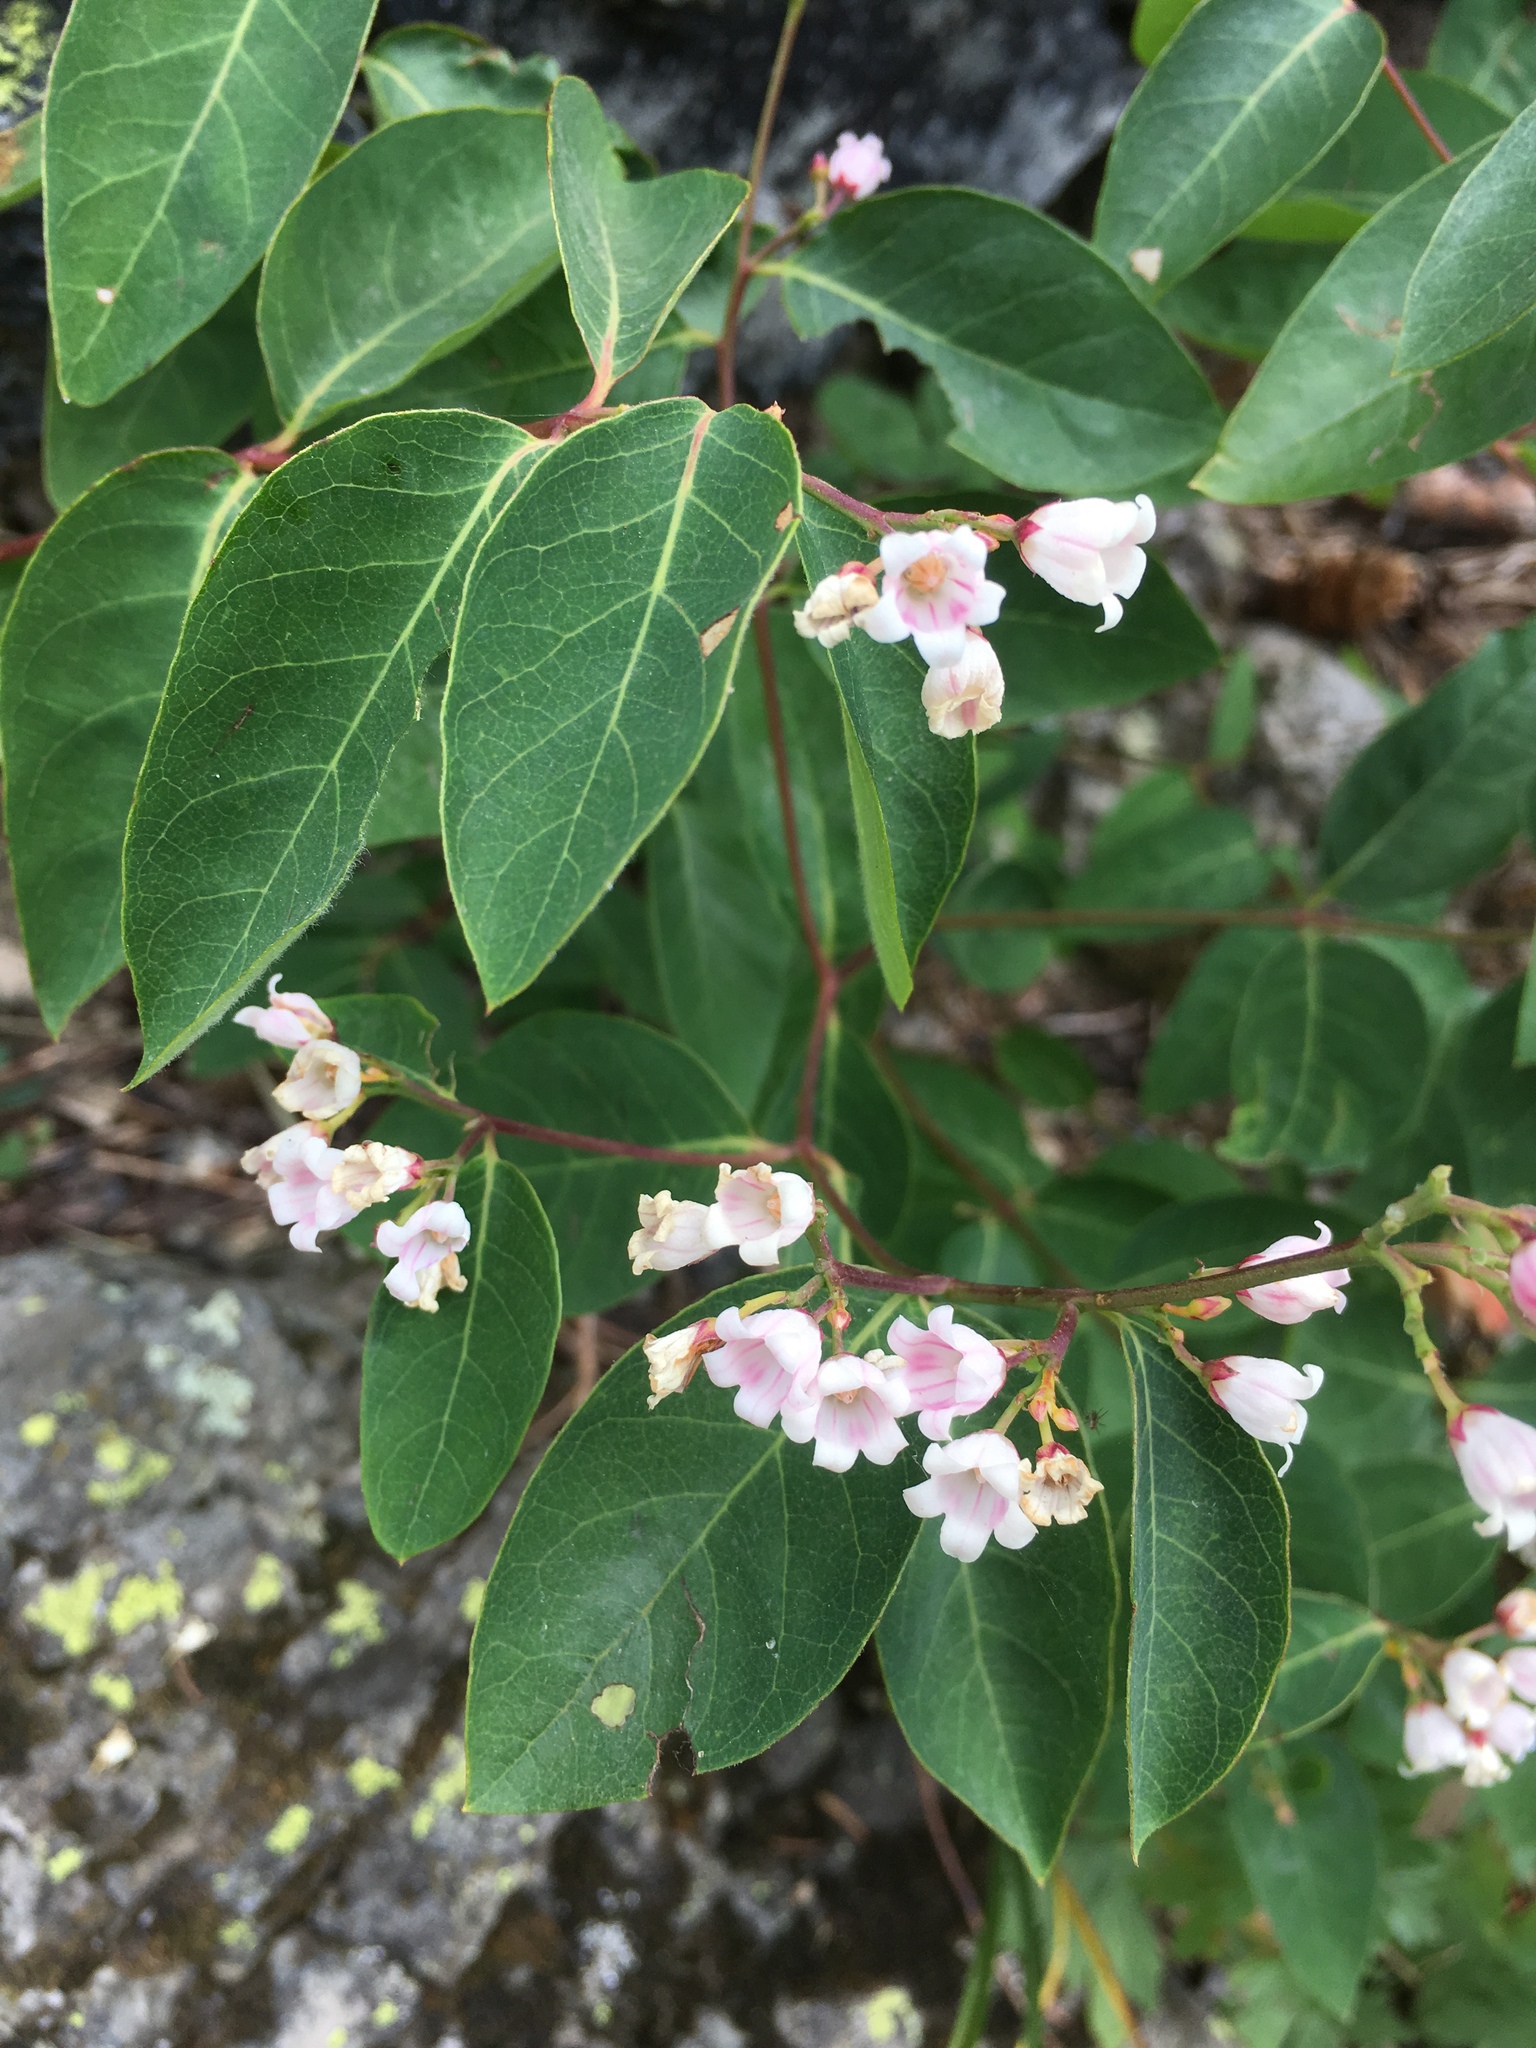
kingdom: Plantae
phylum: Tracheophyta
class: Magnoliopsida
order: Gentianales
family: Apocynaceae
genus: Apocynum
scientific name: Apocynum androsaemifolium
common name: Spreading dogbane
